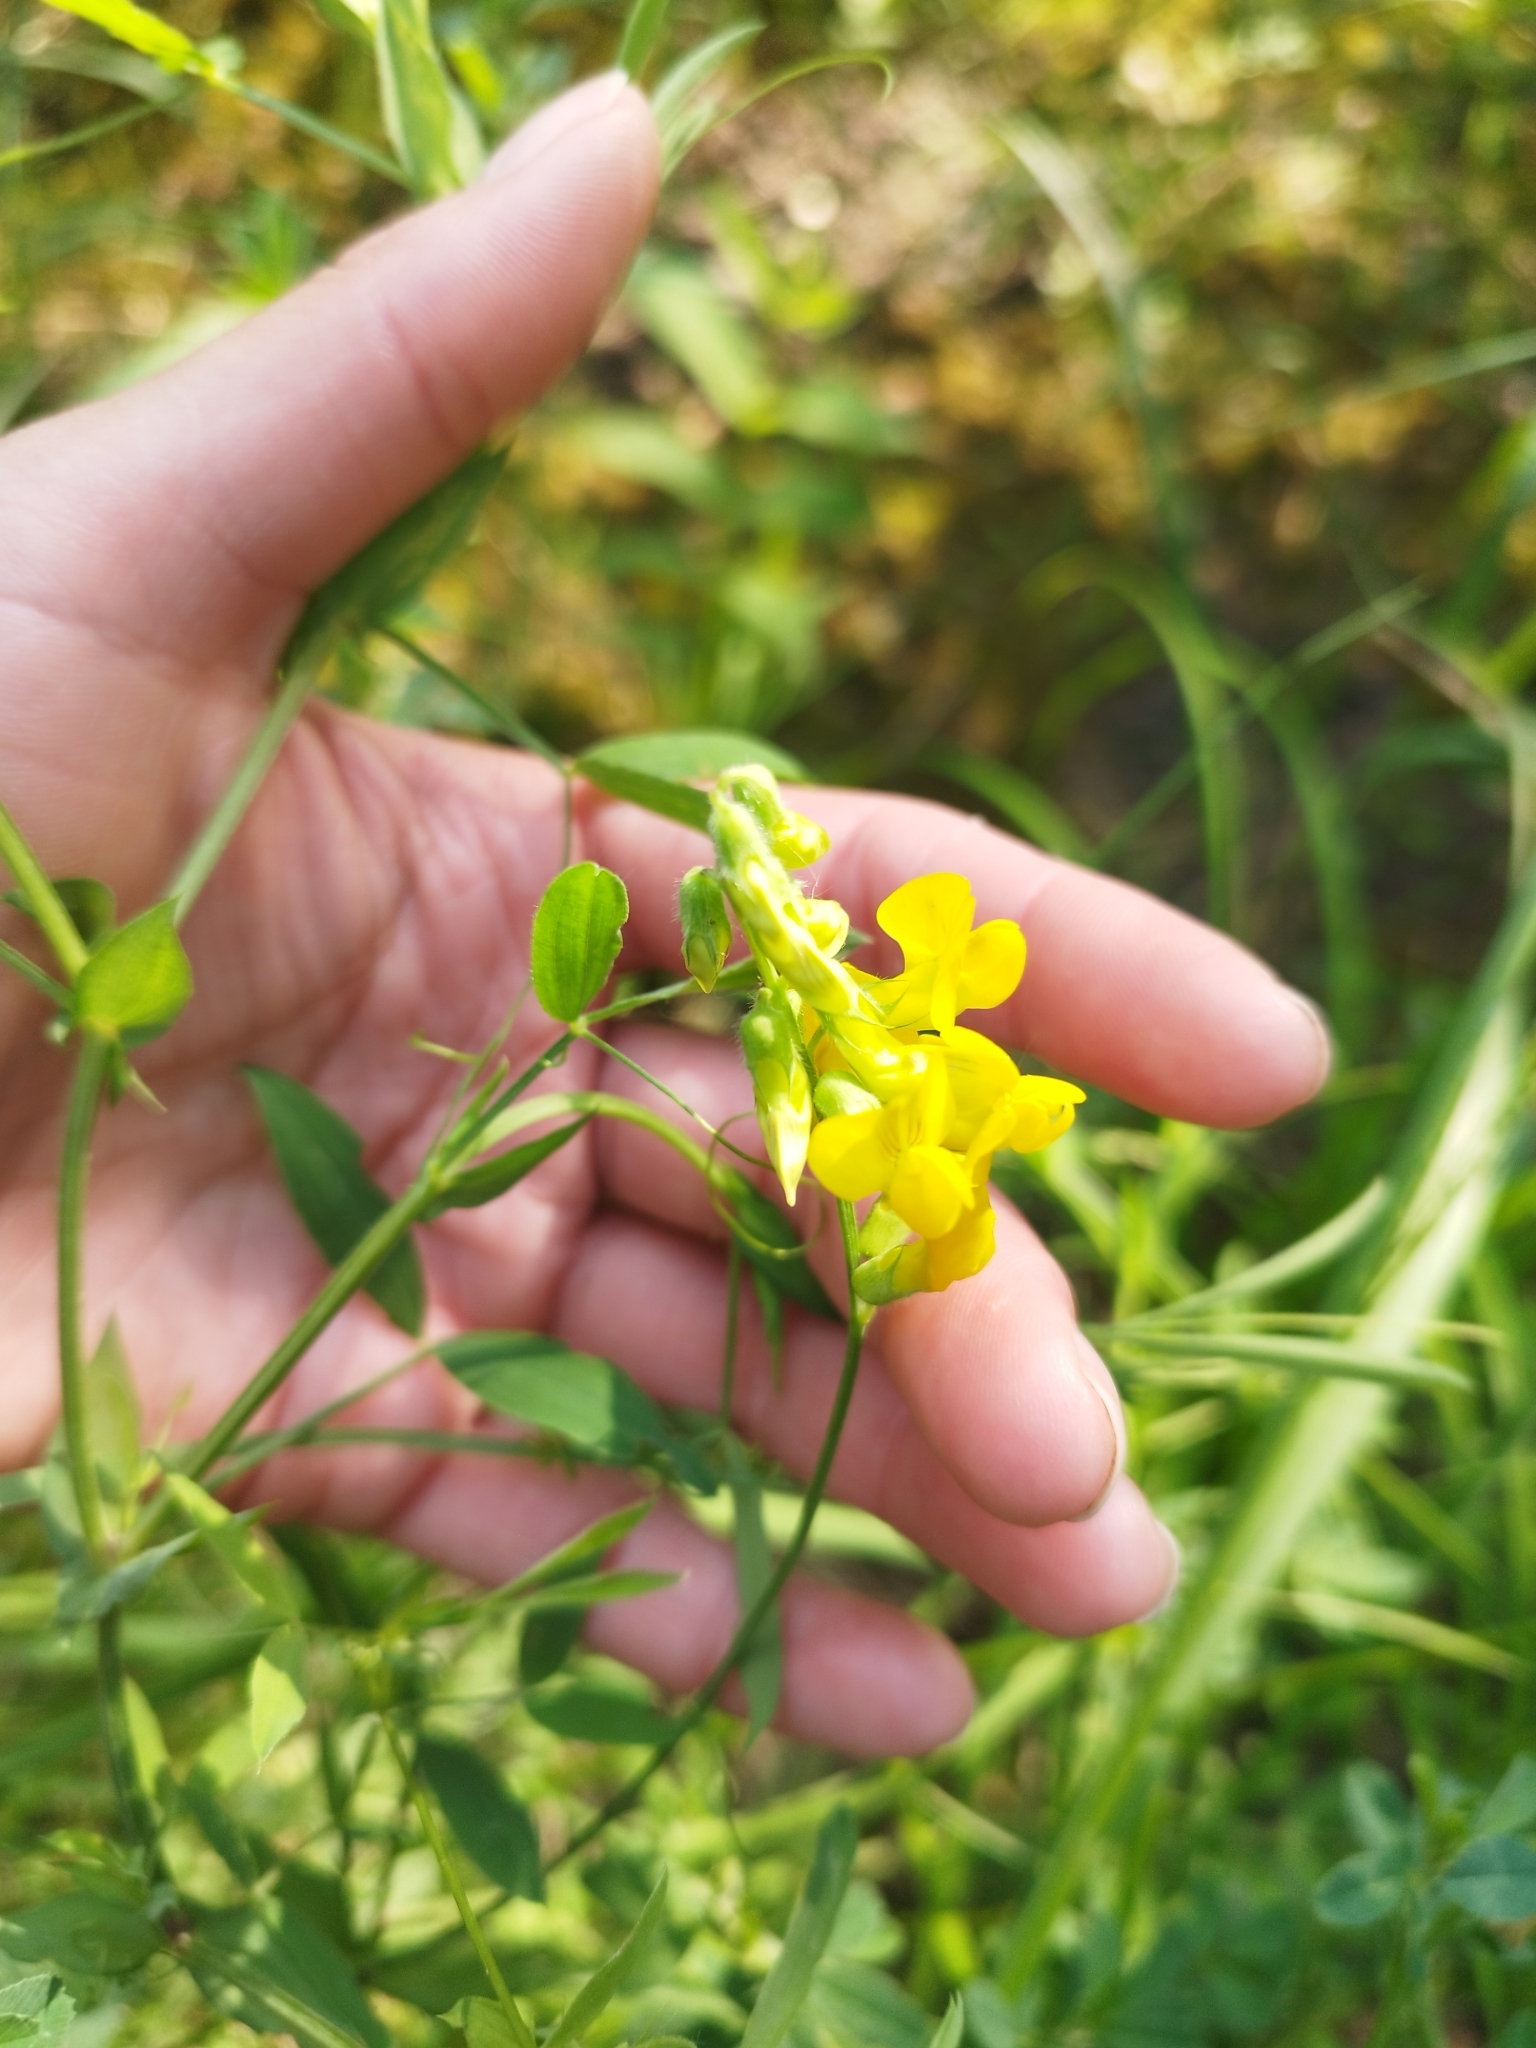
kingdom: Plantae
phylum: Tracheophyta
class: Magnoliopsida
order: Fabales
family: Fabaceae
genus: Lathyrus
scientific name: Lathyrus pratensis
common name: Meadow vetchling
